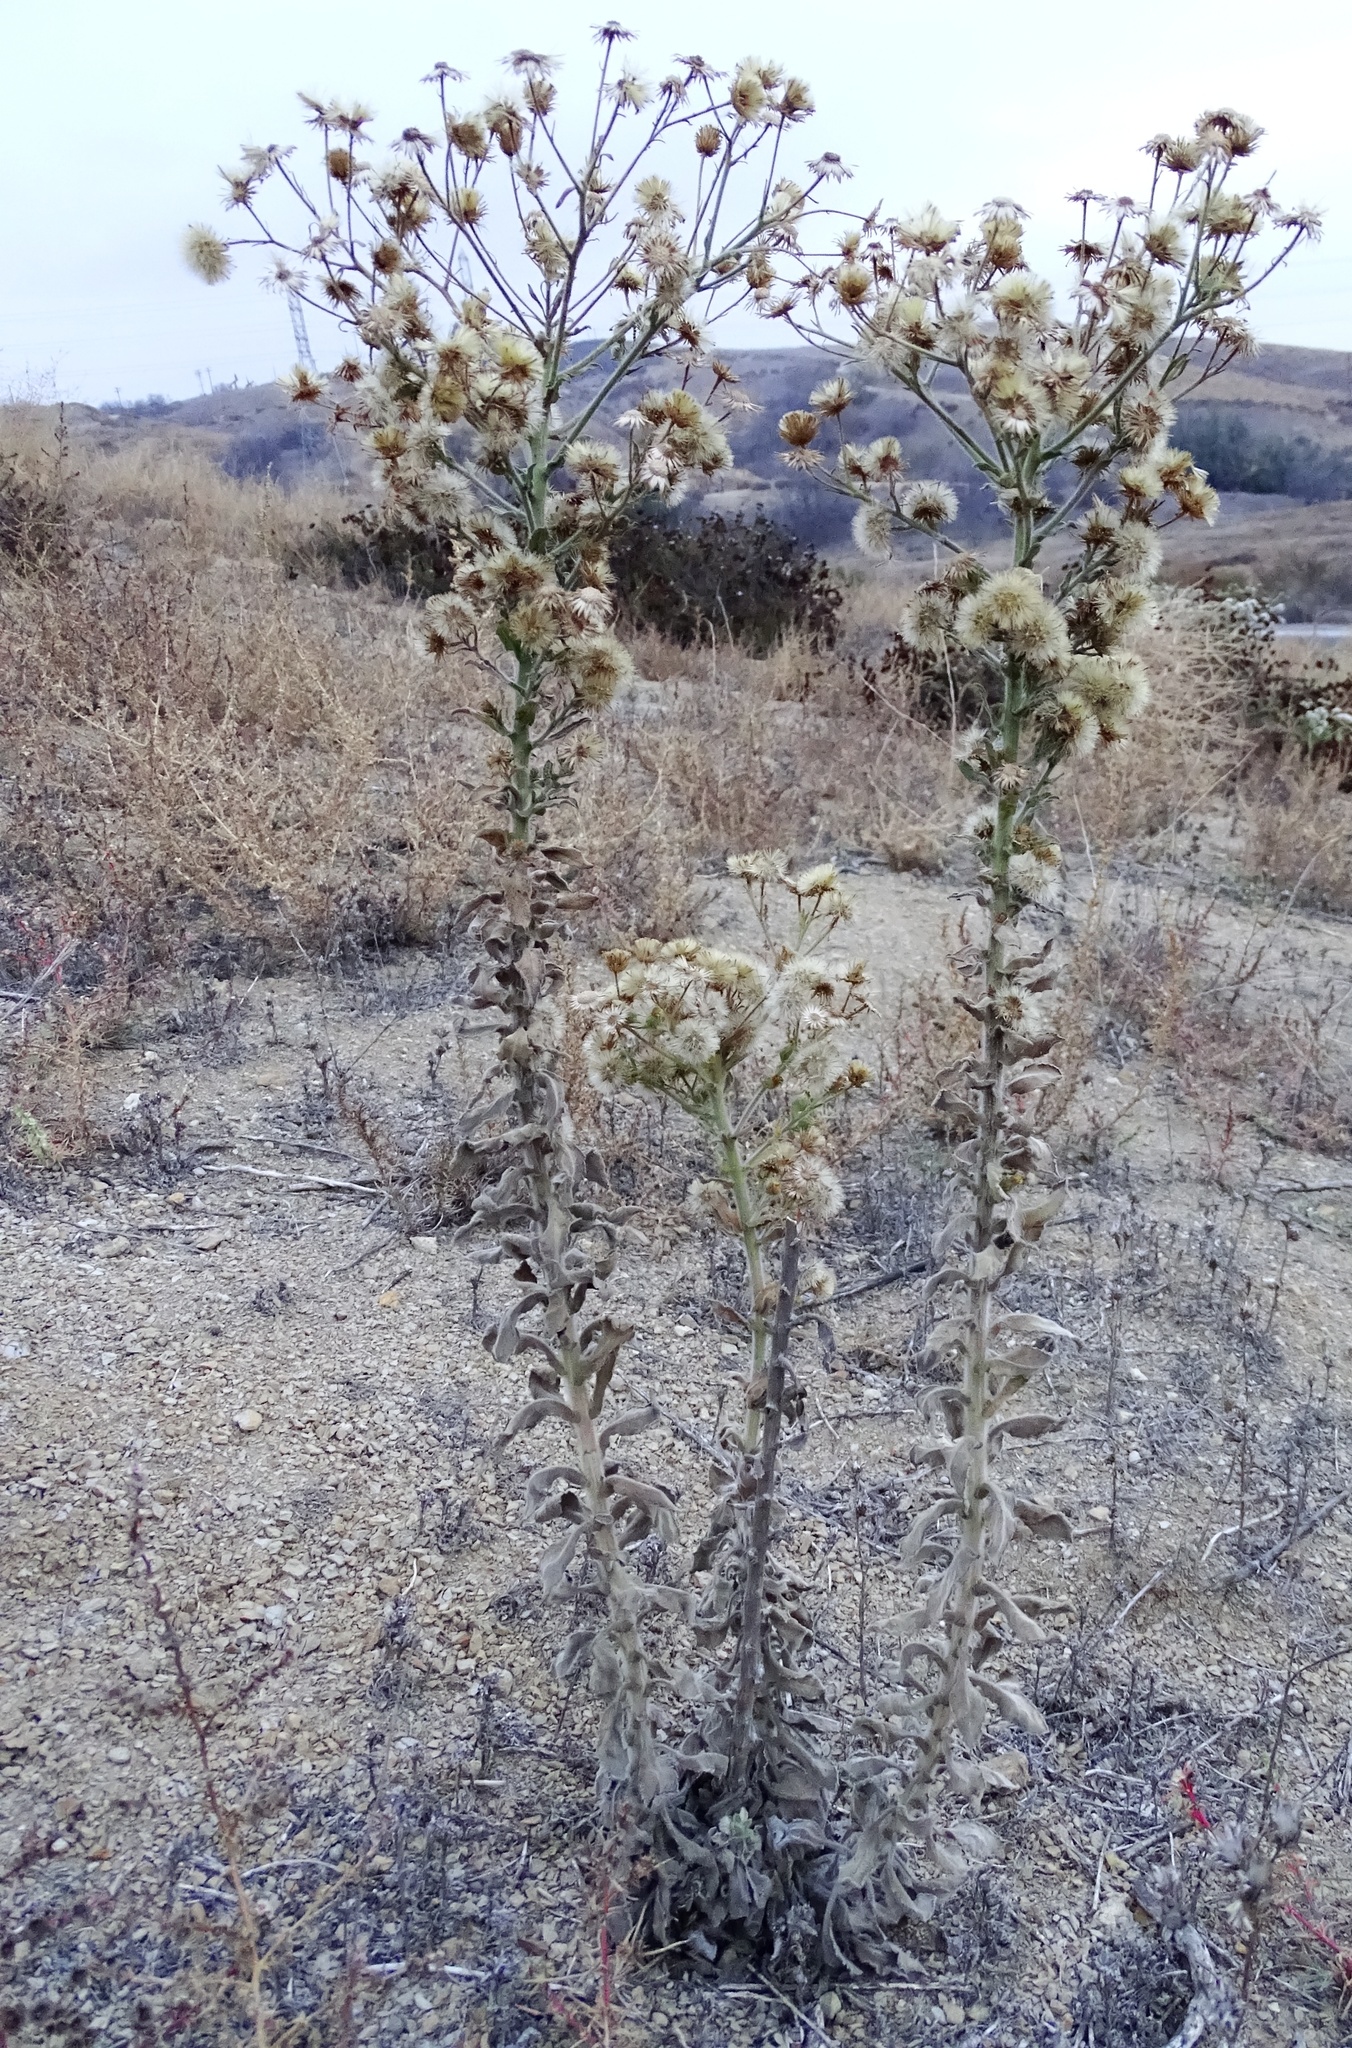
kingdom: Plantae
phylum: Tracheophyta
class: Magnoliopsida
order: Asterales
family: Asteraceae
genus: Heterotheca
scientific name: Heterotheca grandiflora
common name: Telegraphweed
